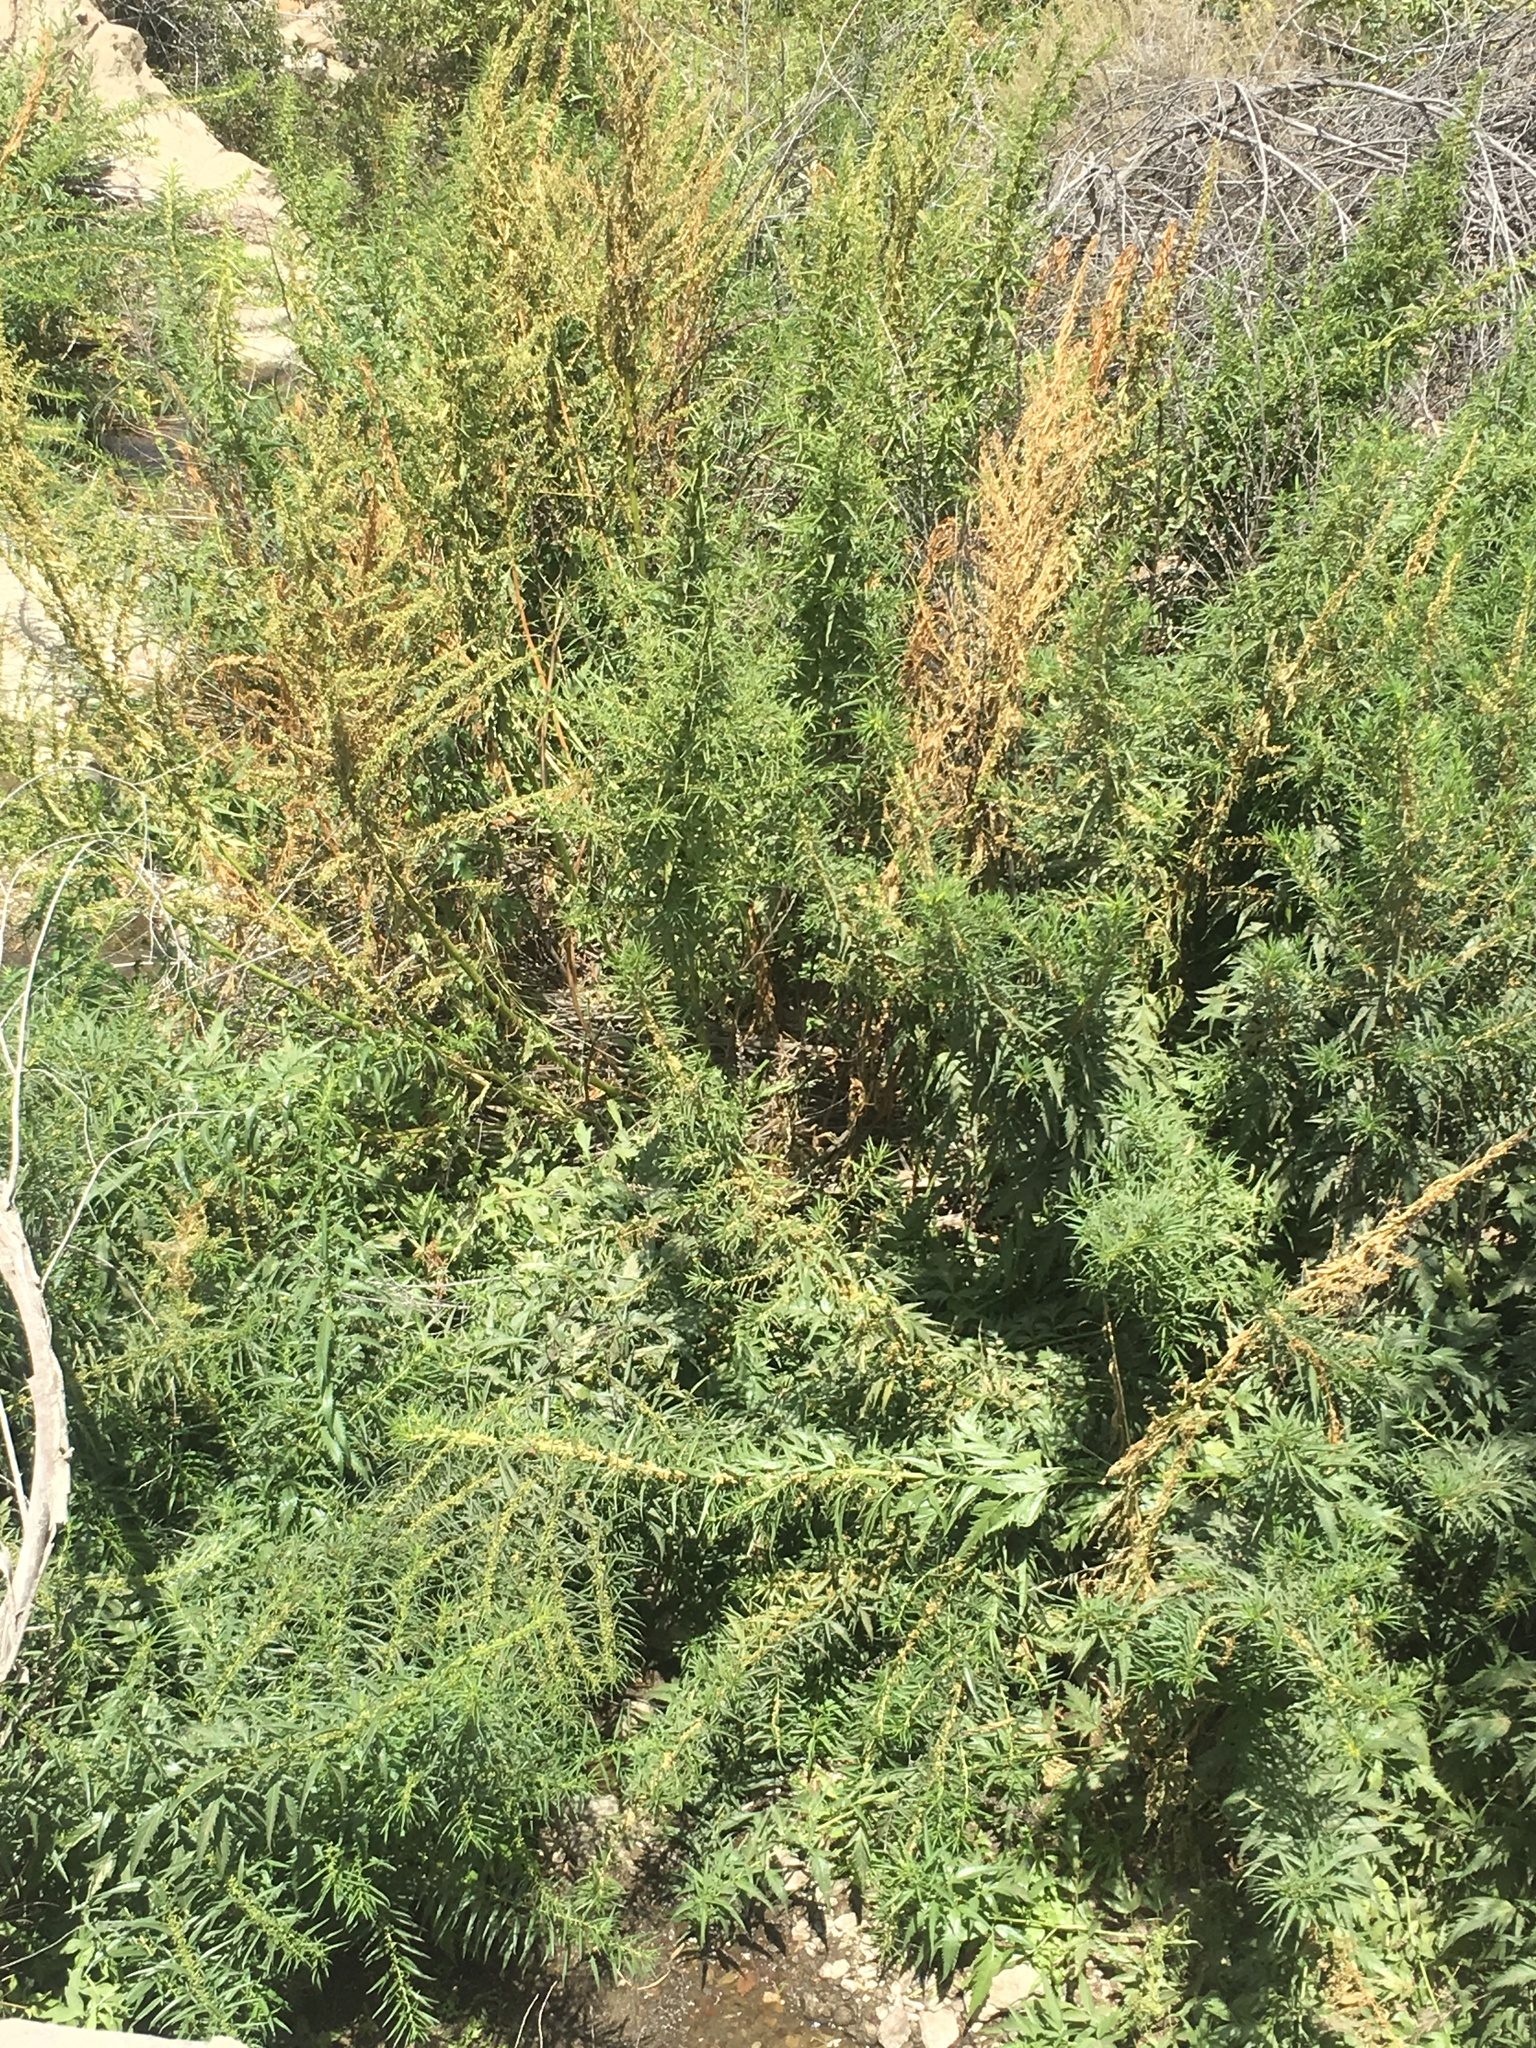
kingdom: Plantae
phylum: Tracheophyta
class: Magnoliopsida
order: Cucurbitales
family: Datiscaceae
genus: Datisca
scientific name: Datisca glomerata
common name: Durango-root
